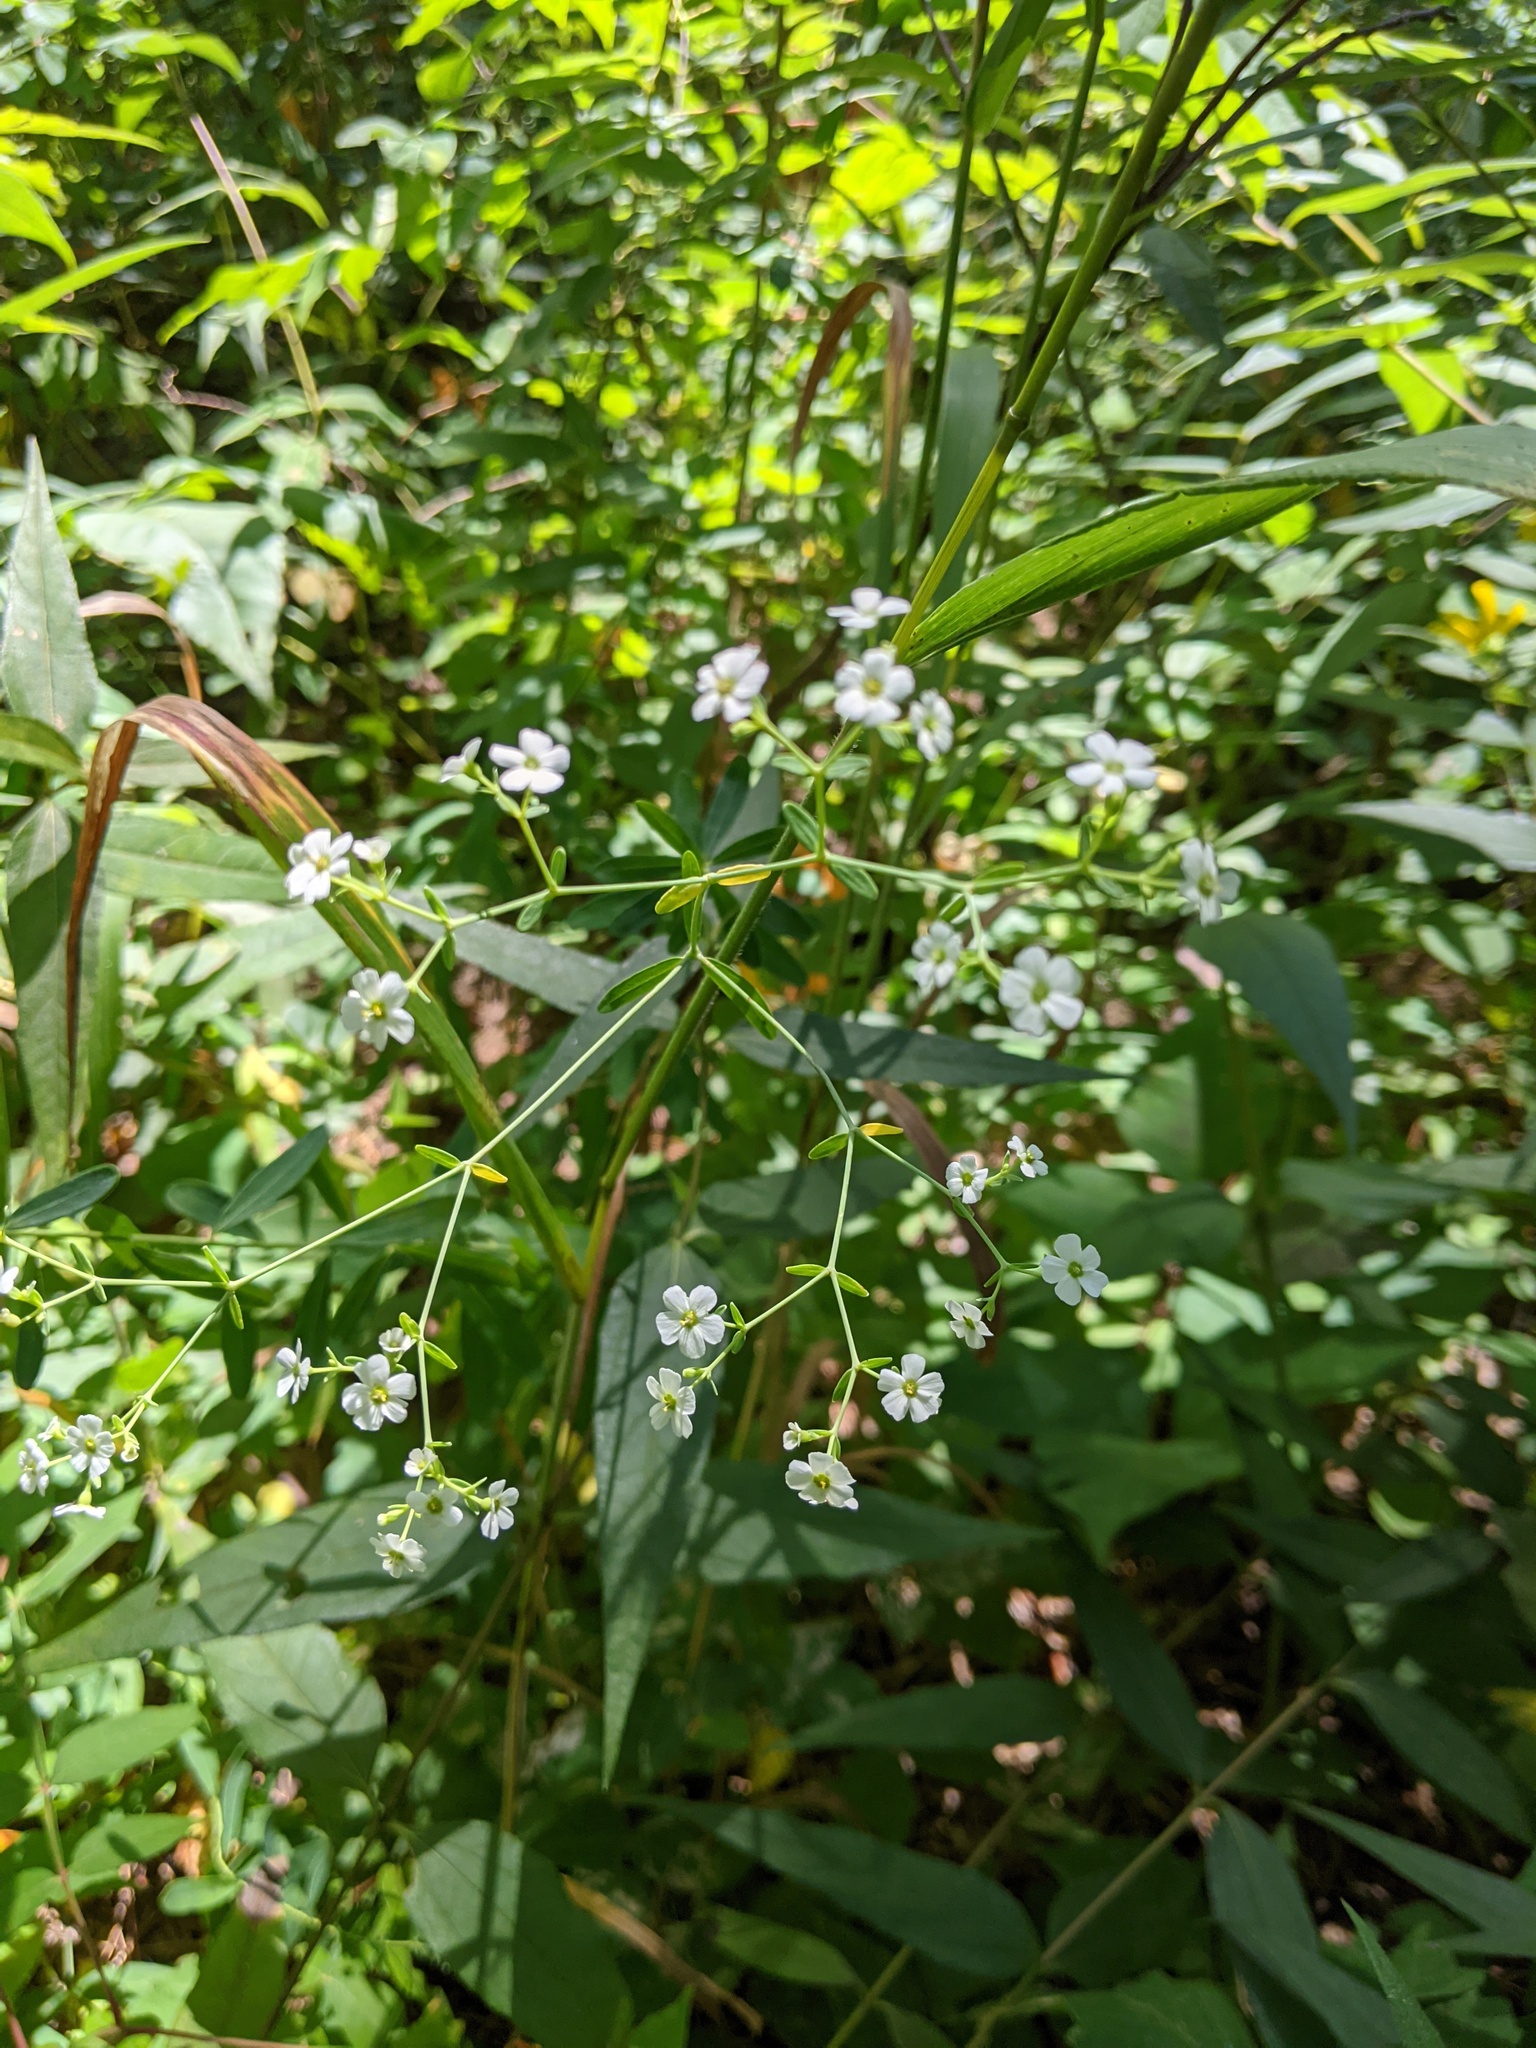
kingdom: Plantae
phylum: Tracheophyta
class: Magnoliopsida
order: Malpighiales
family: Euphorbiaceae
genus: Euphorbia
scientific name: Euphorbia corollata
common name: Flowering spurge
